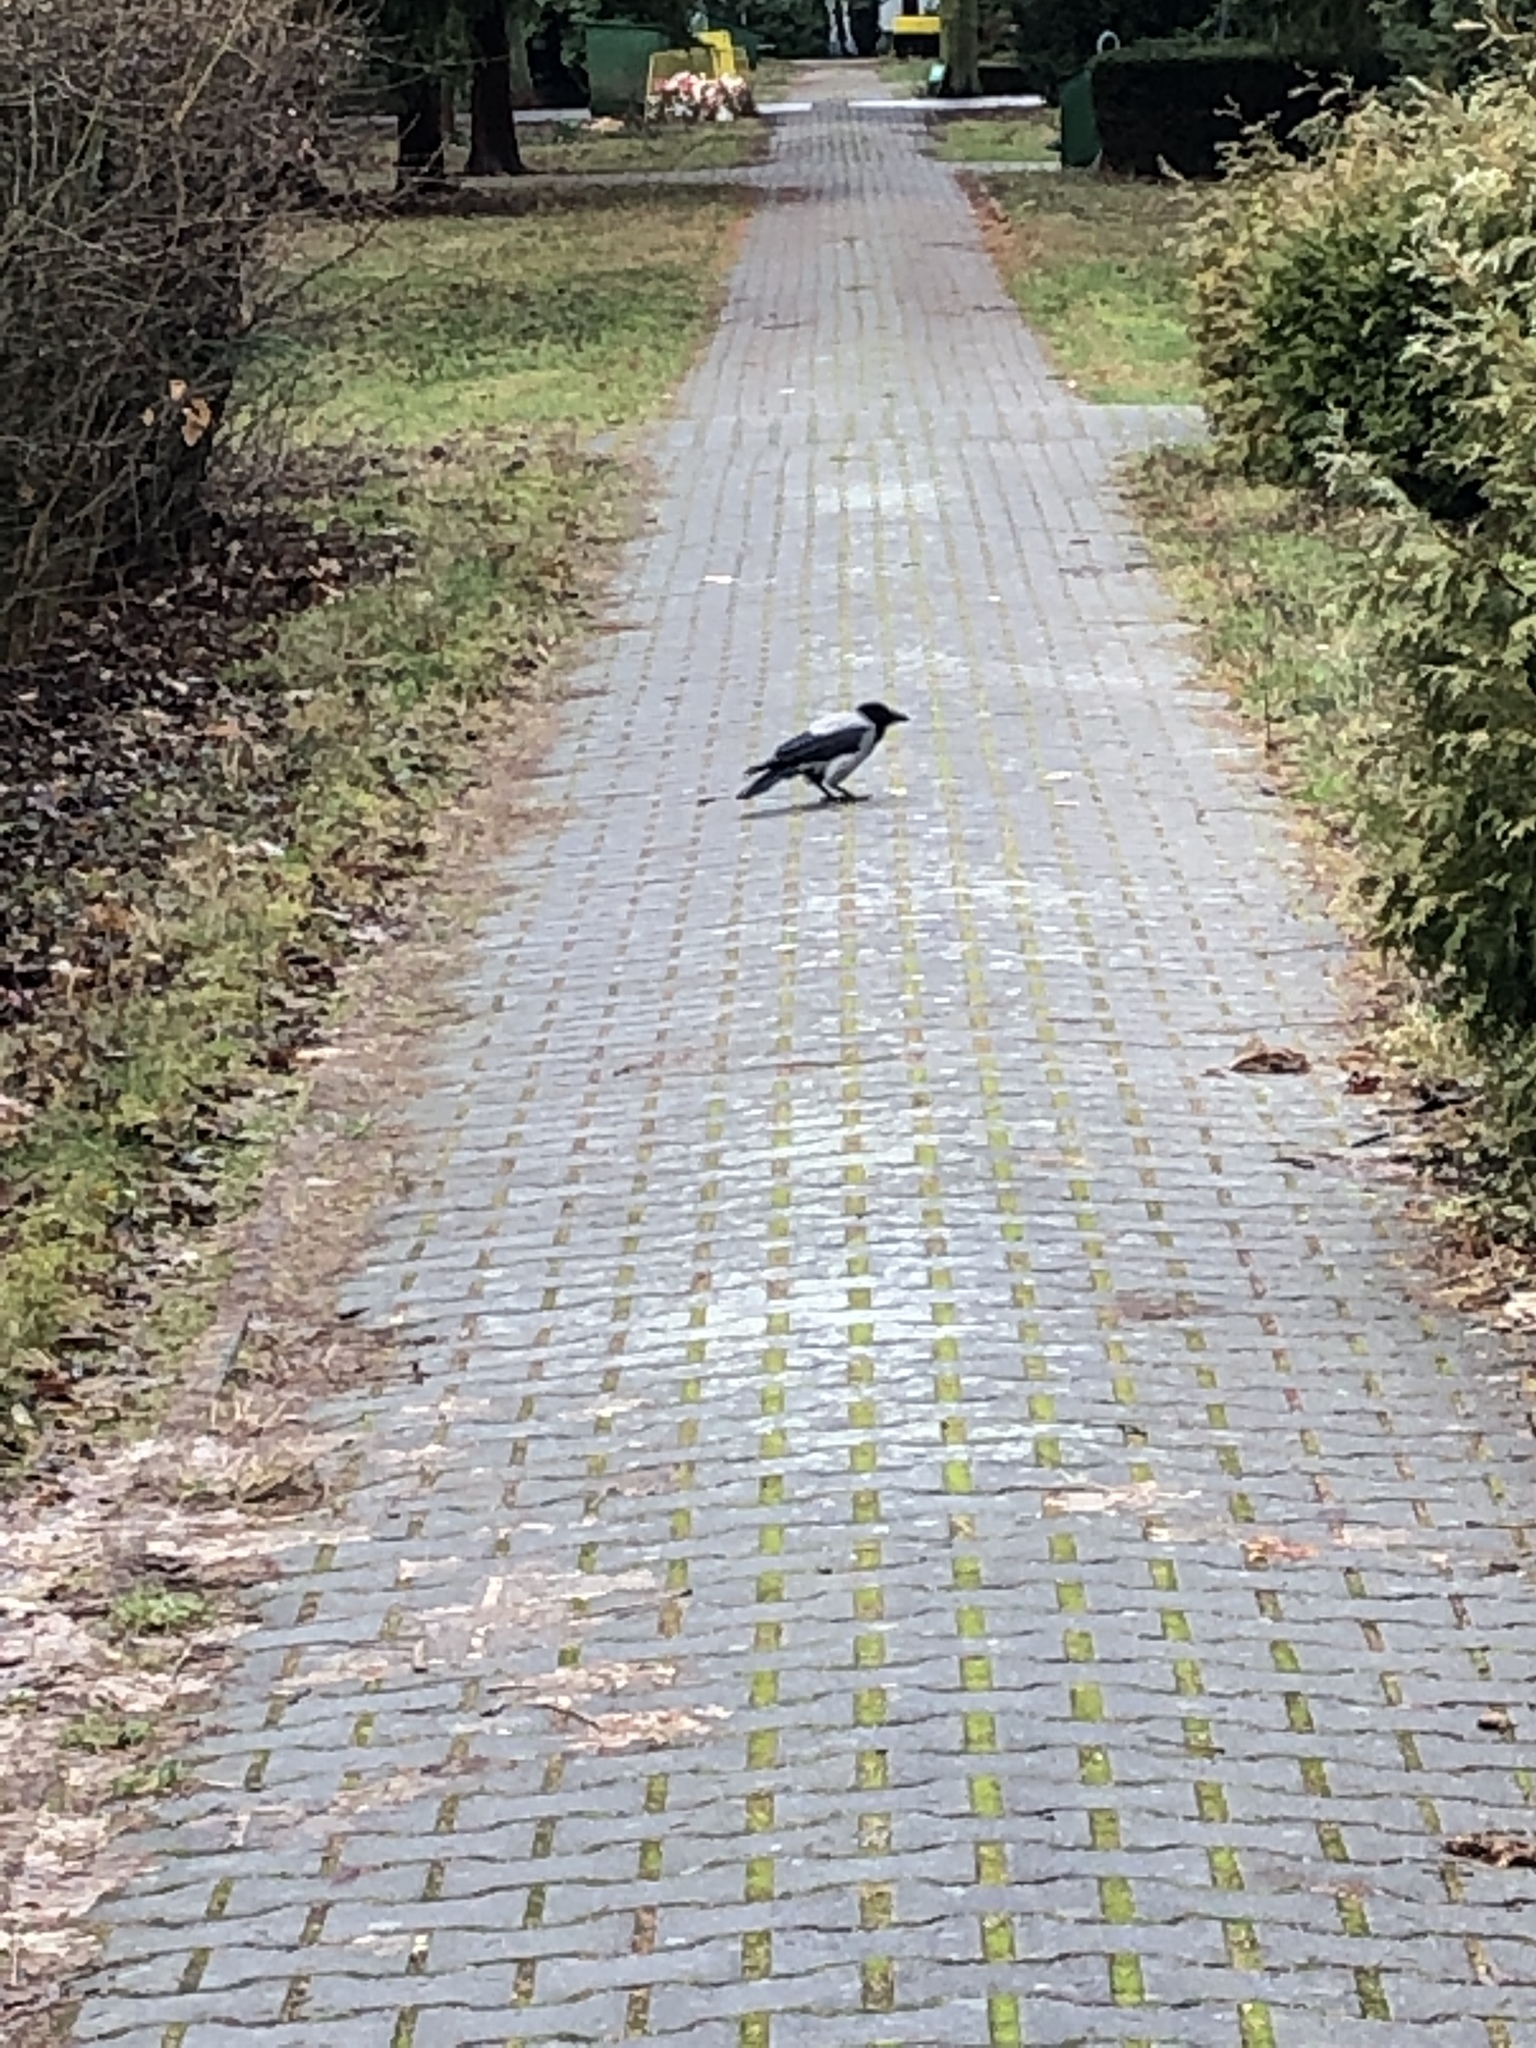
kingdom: Animalia
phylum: Chordata
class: Aves
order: Passeriformes
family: Corvidae
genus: Corvus
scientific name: Corvus cornix
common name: Hooded crow
